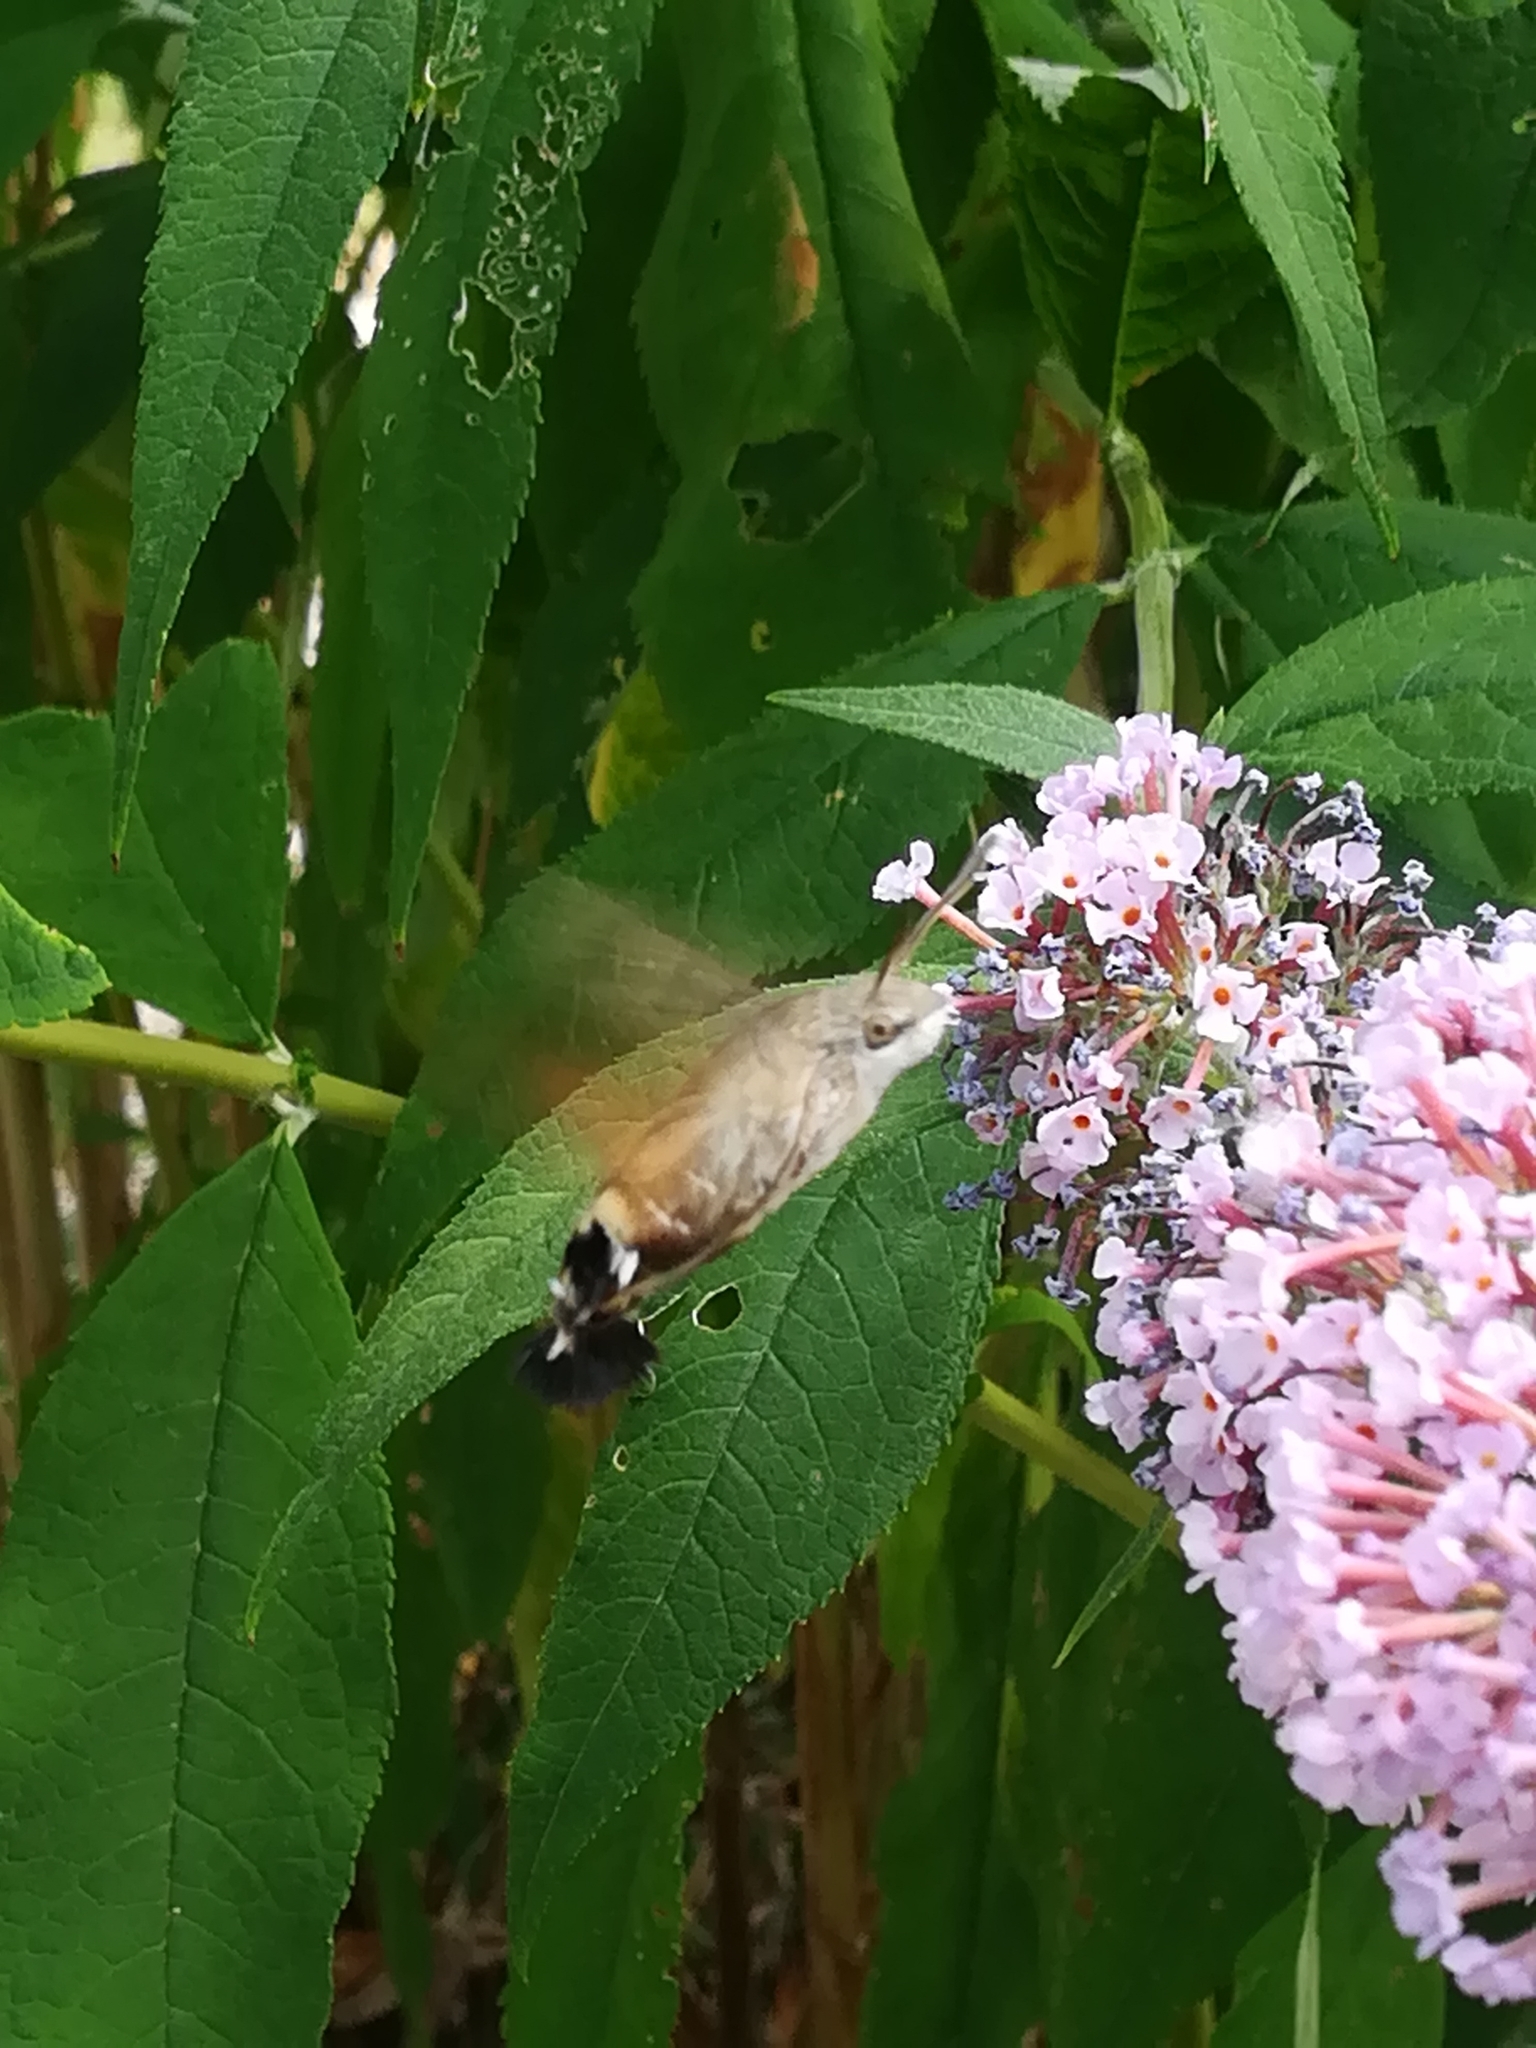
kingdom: Animalia
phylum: Arthropoda
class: Insecta
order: Lepidoptera
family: Sphingidae
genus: Macroglossum
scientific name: Macroglossum stellatarum
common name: Humming-bird hawk-moth
